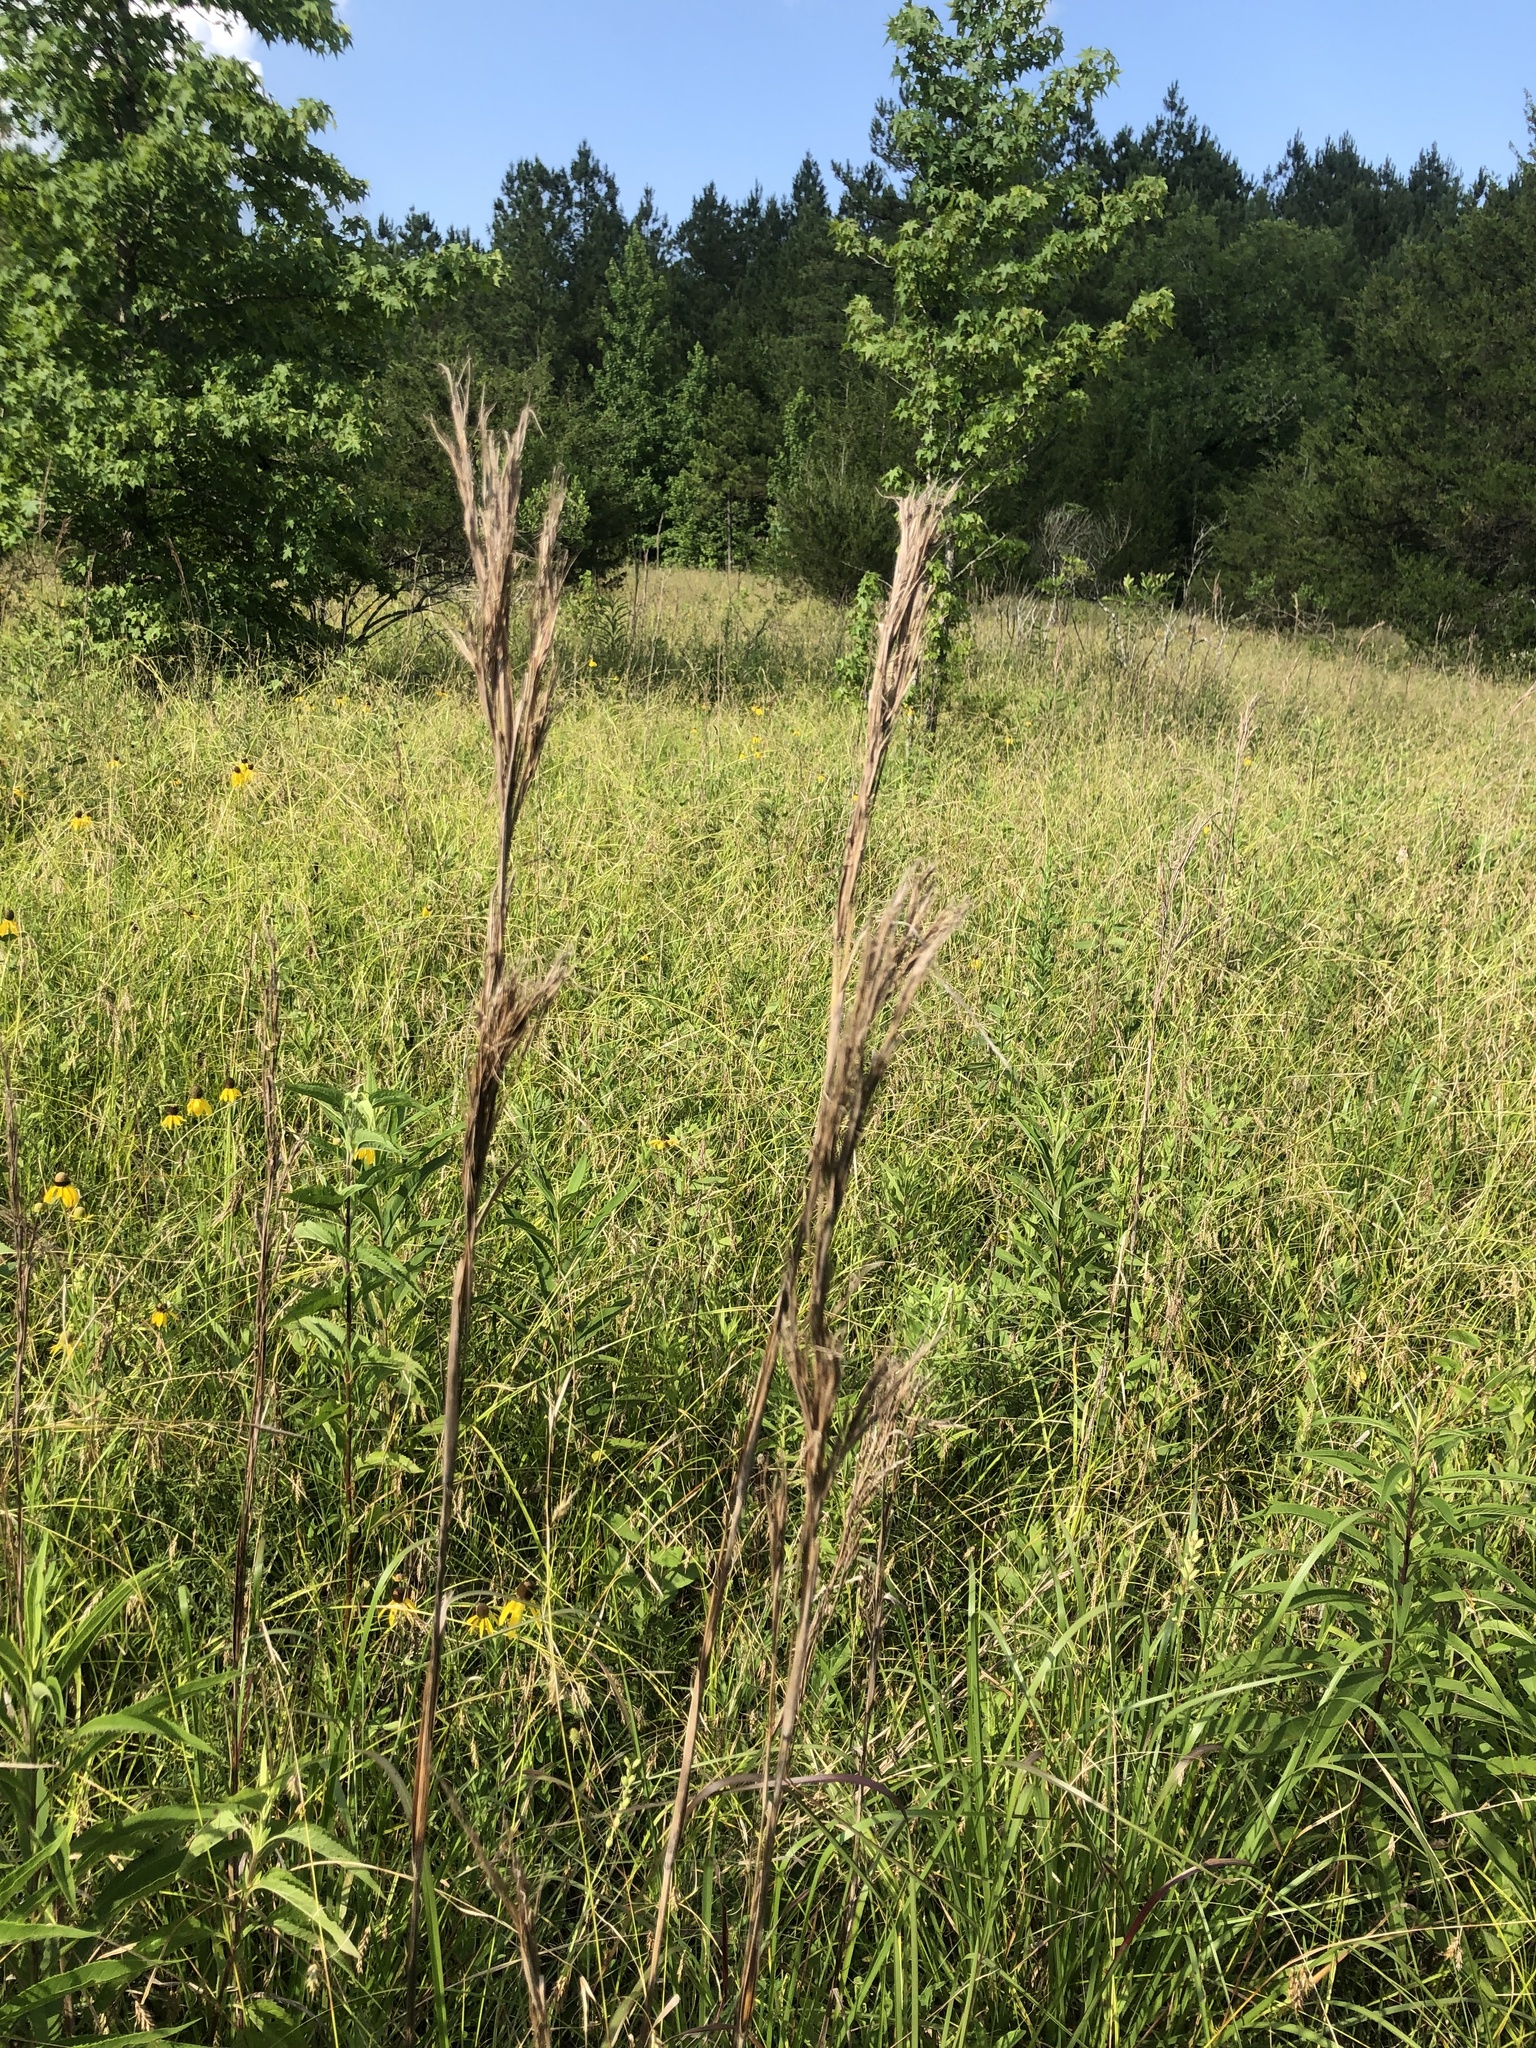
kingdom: Plantae
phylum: Tracheophyta
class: Liliopsida
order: Poales
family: Poaceae
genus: Andropogon
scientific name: Andropogon tenuispatheus
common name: Bushy bluestem
